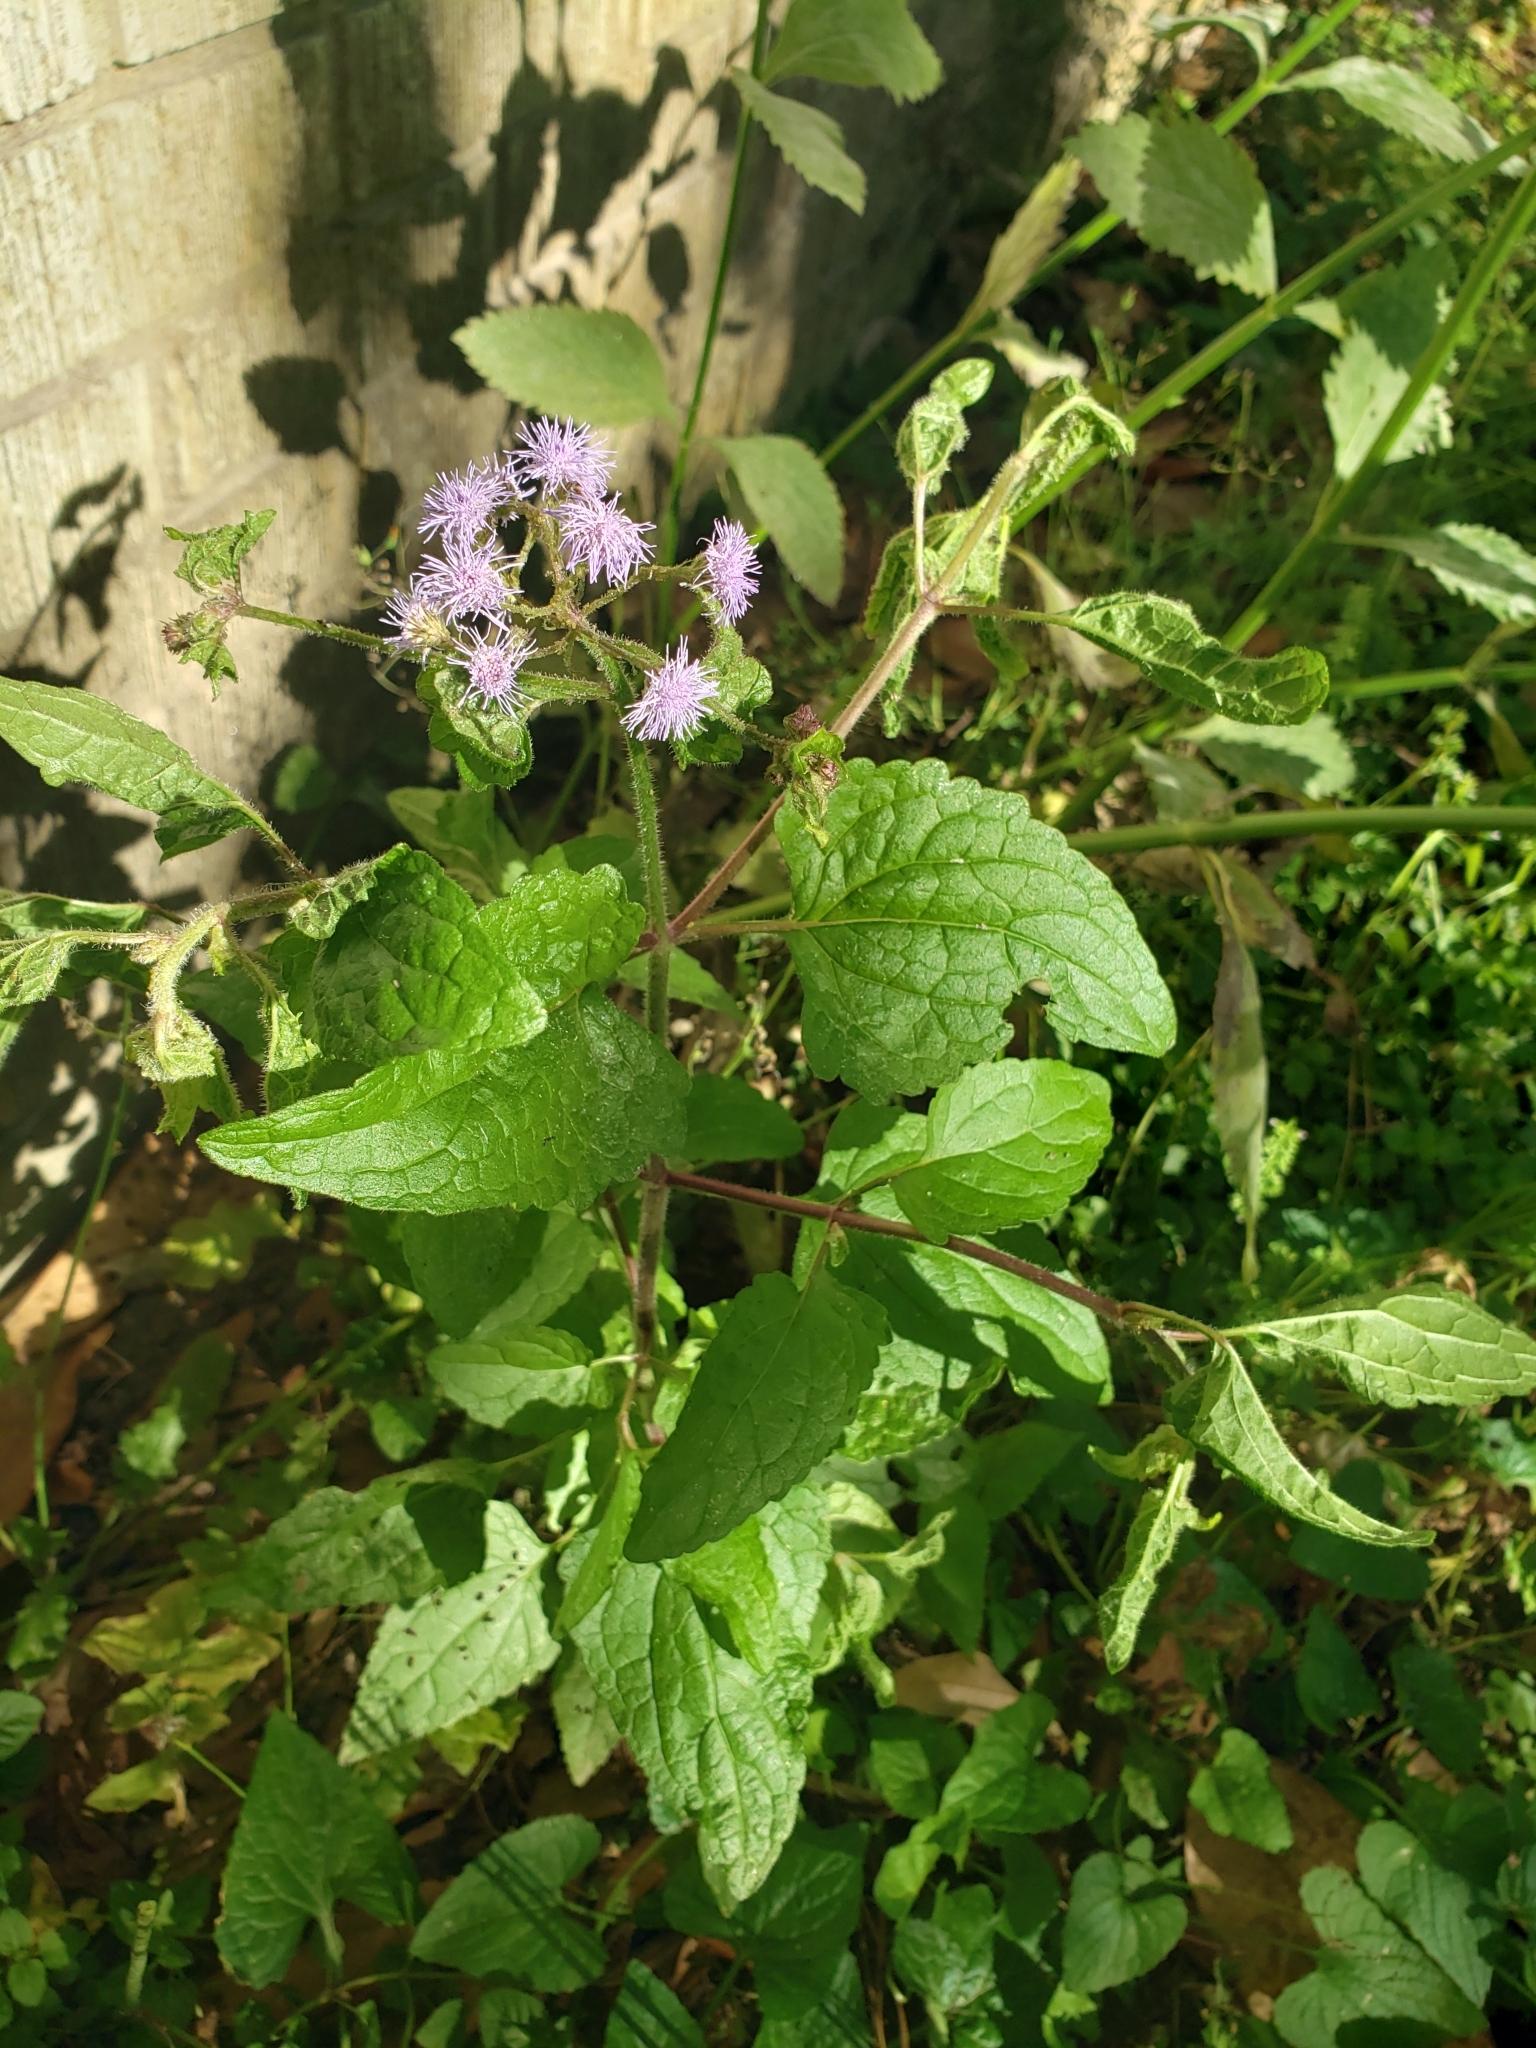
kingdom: Plantae
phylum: Tracheophyta
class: Magnoliopsida
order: Asterales
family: Asteraceae
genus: Conoclinium
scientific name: Conoclinium coelestinum
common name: Blue mistflower
